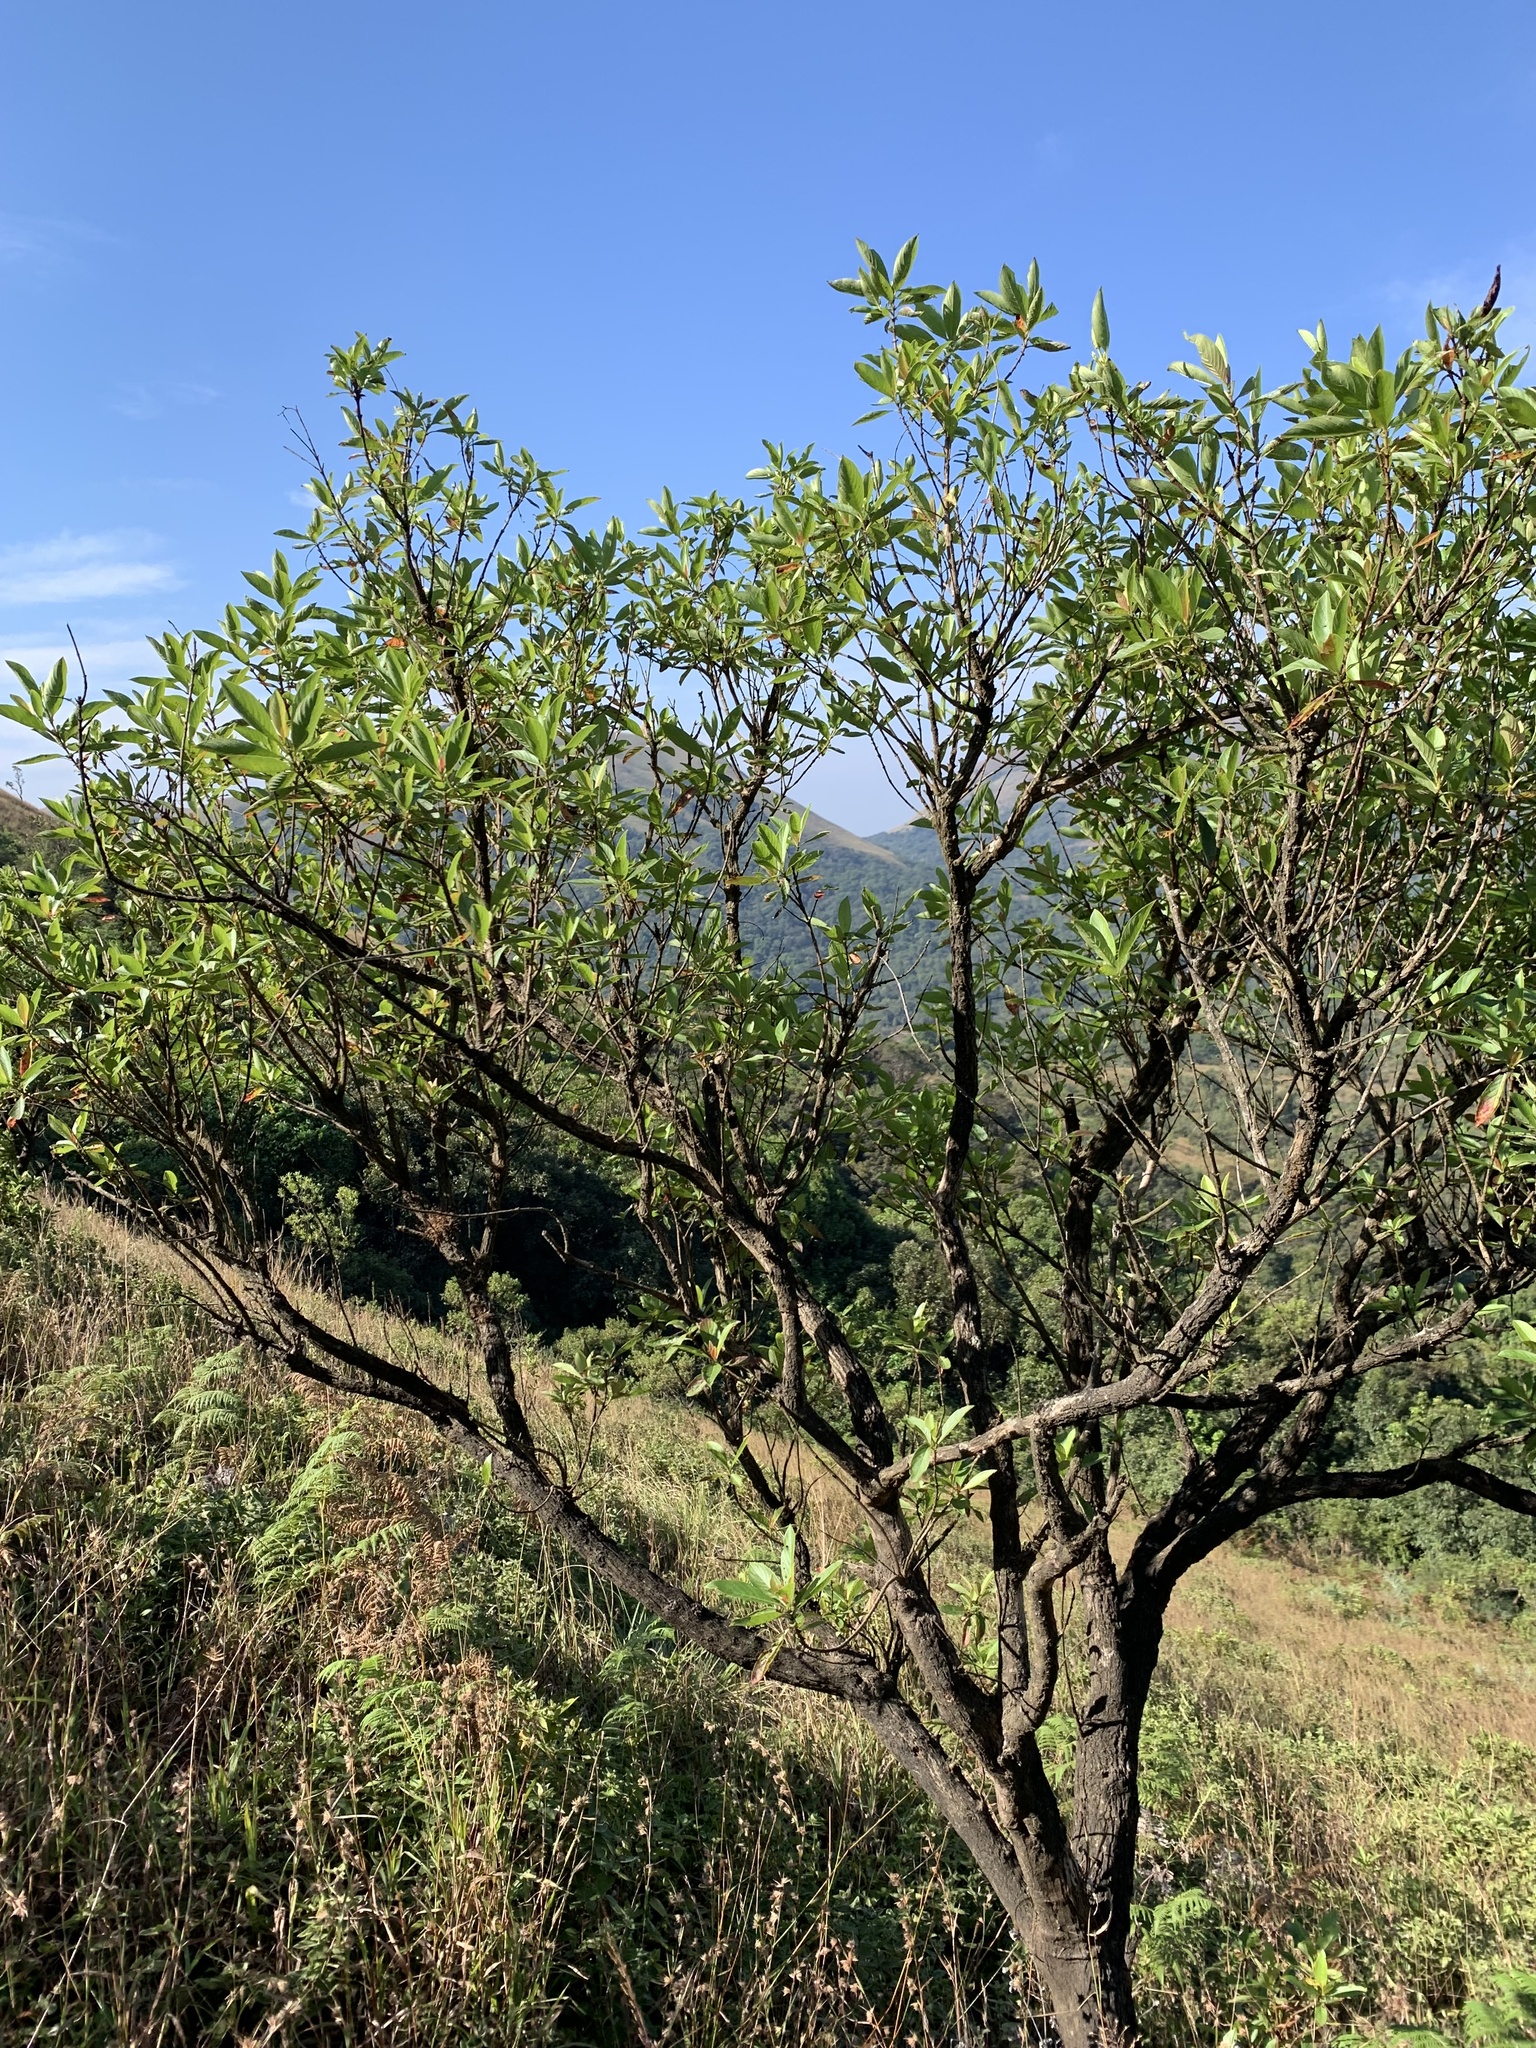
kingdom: Plantae
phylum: Tracheophyta
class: Magnoliopsida
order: Gentianales
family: Rubiaceae
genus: Wendlandia
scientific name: Wendlandia thyrsoidea
